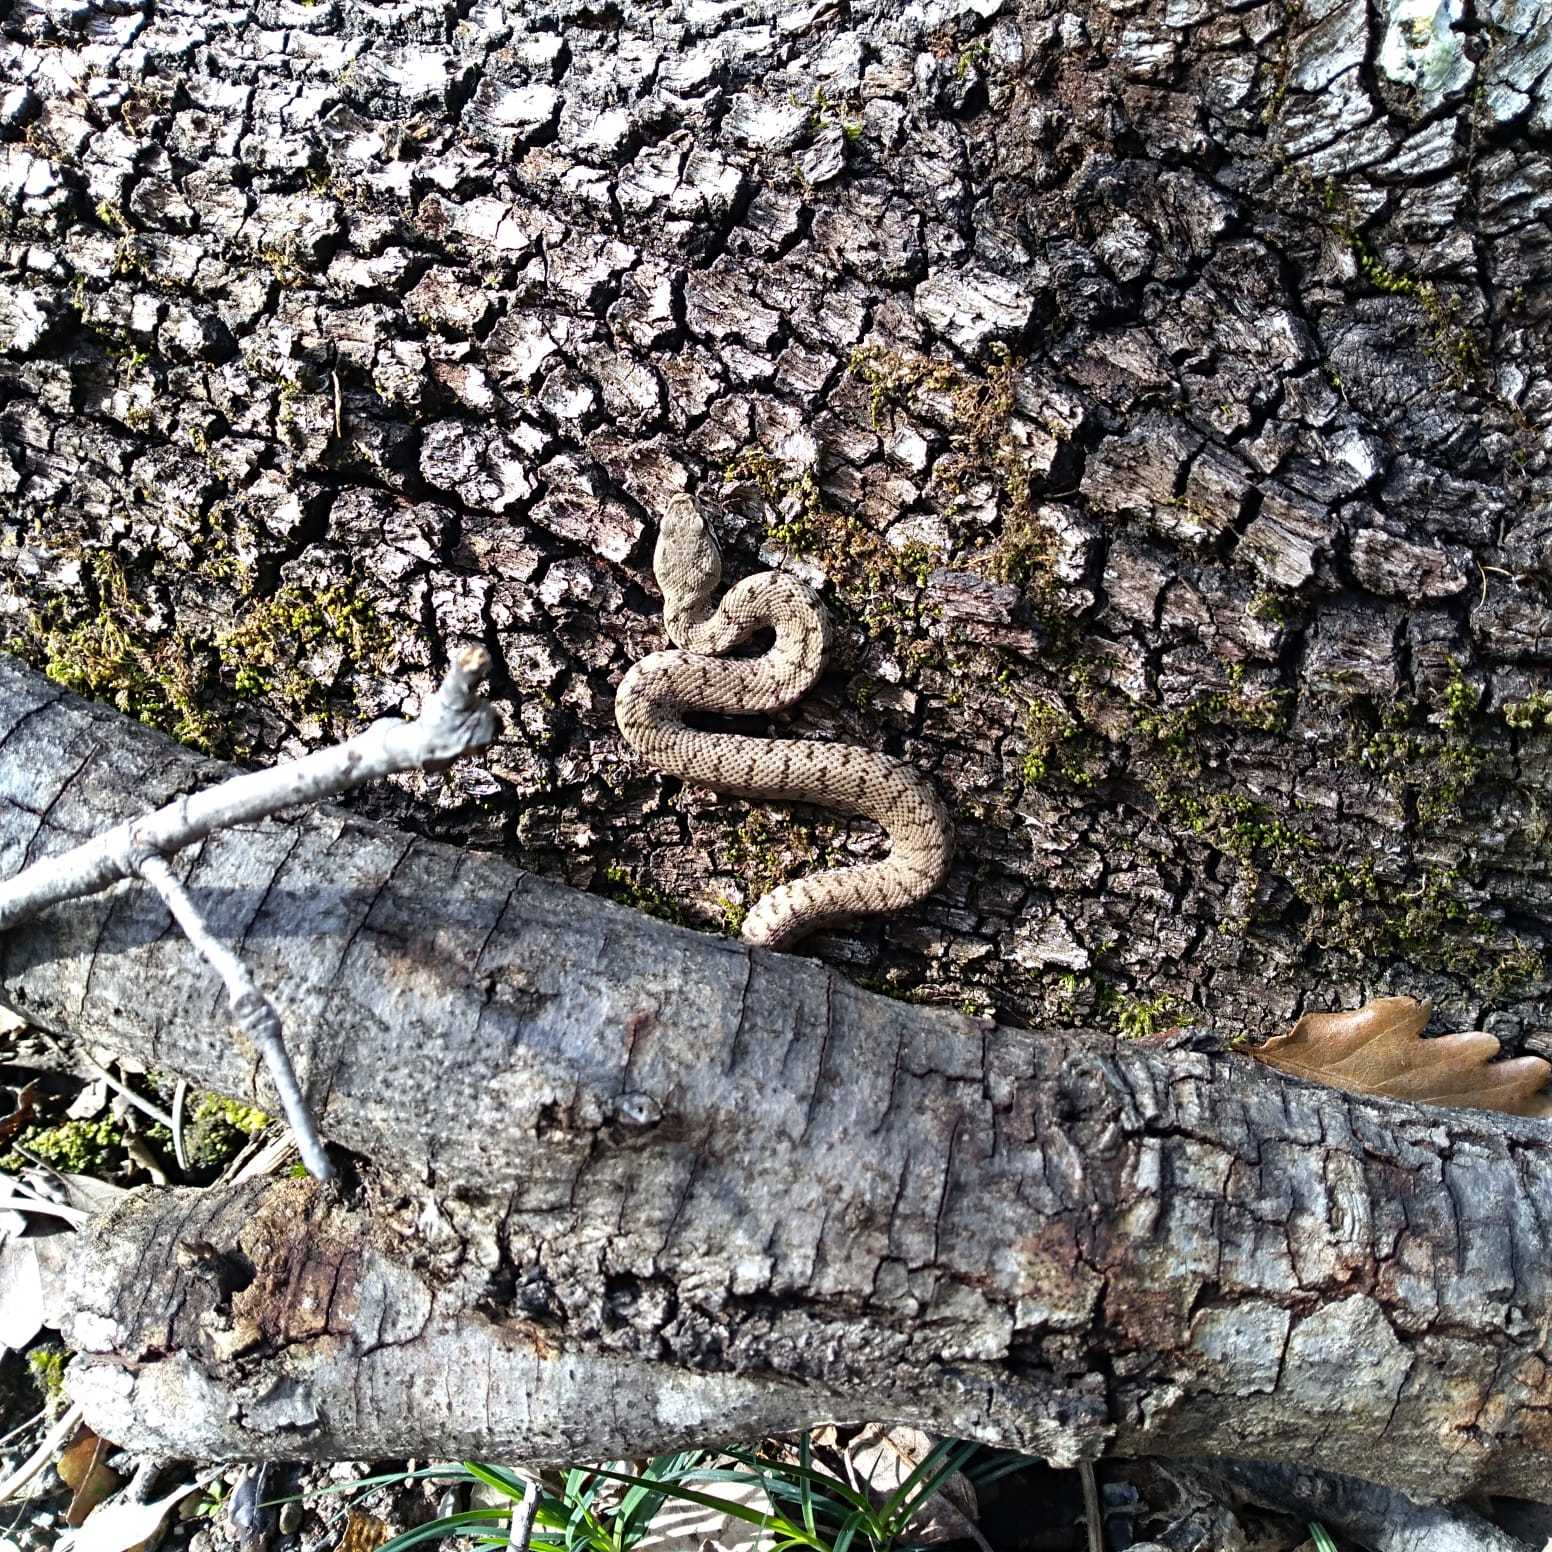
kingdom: Animalia
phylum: Chordata
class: Squamata
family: Viperidae
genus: Vipera
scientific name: Vipera aspis
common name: Asp viper
